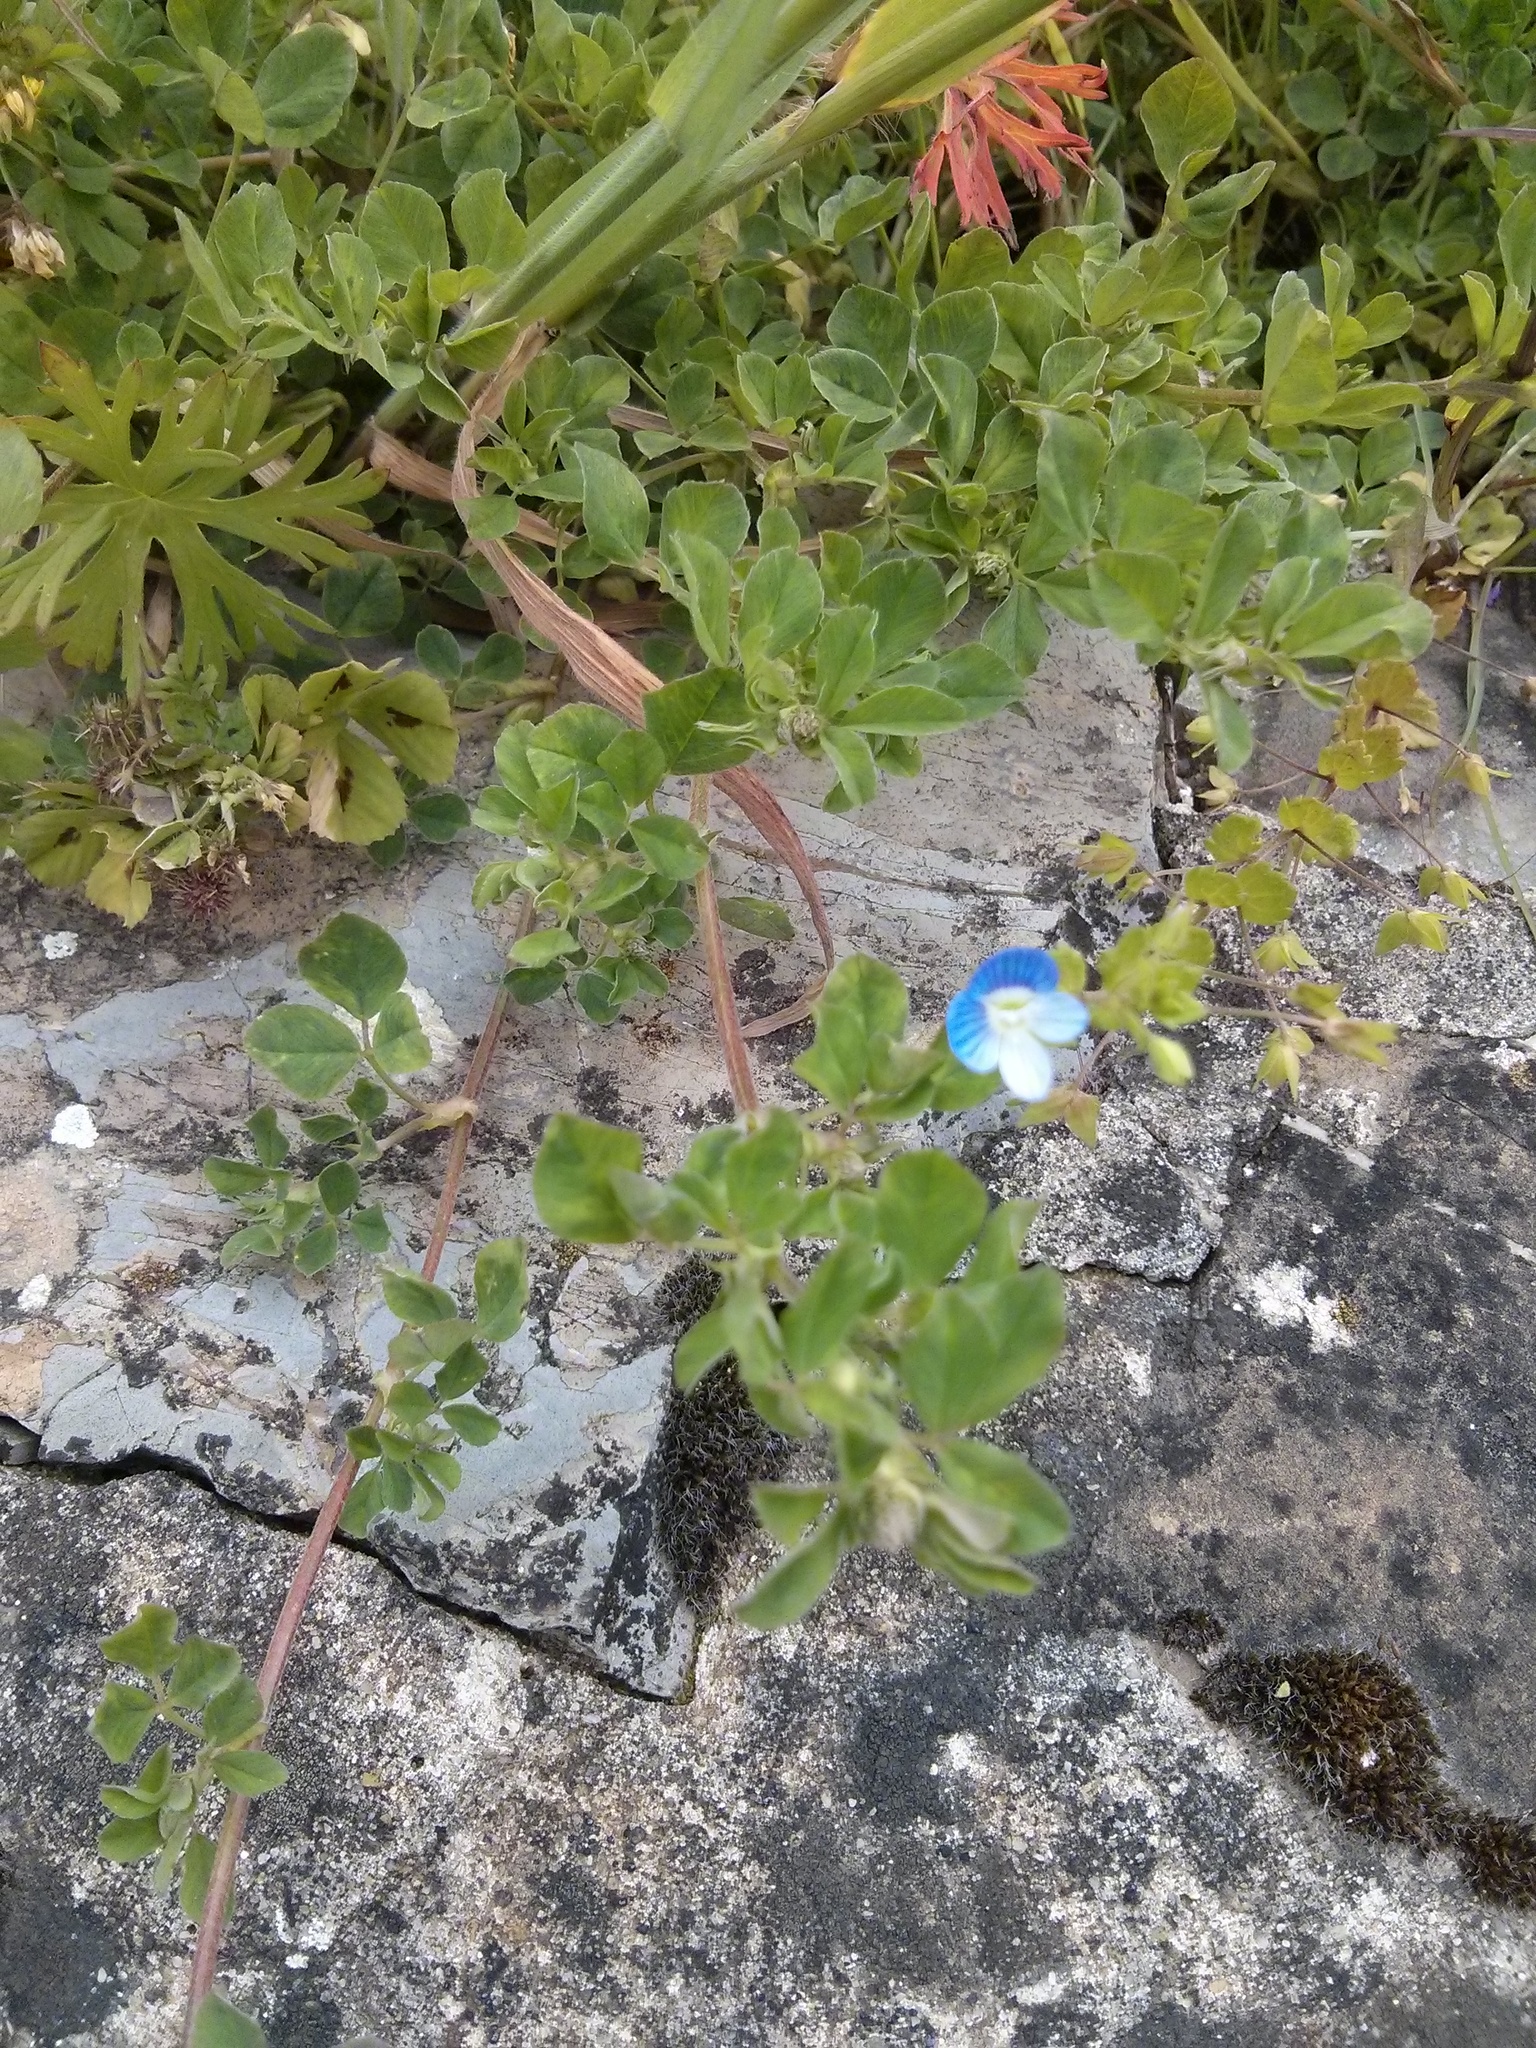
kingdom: Plantae
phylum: Tracheophyta
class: Magnoliopsida
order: Lamiales
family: Plantaginaceae
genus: Veronica
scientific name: Veronica persica
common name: Common field-speedwell
